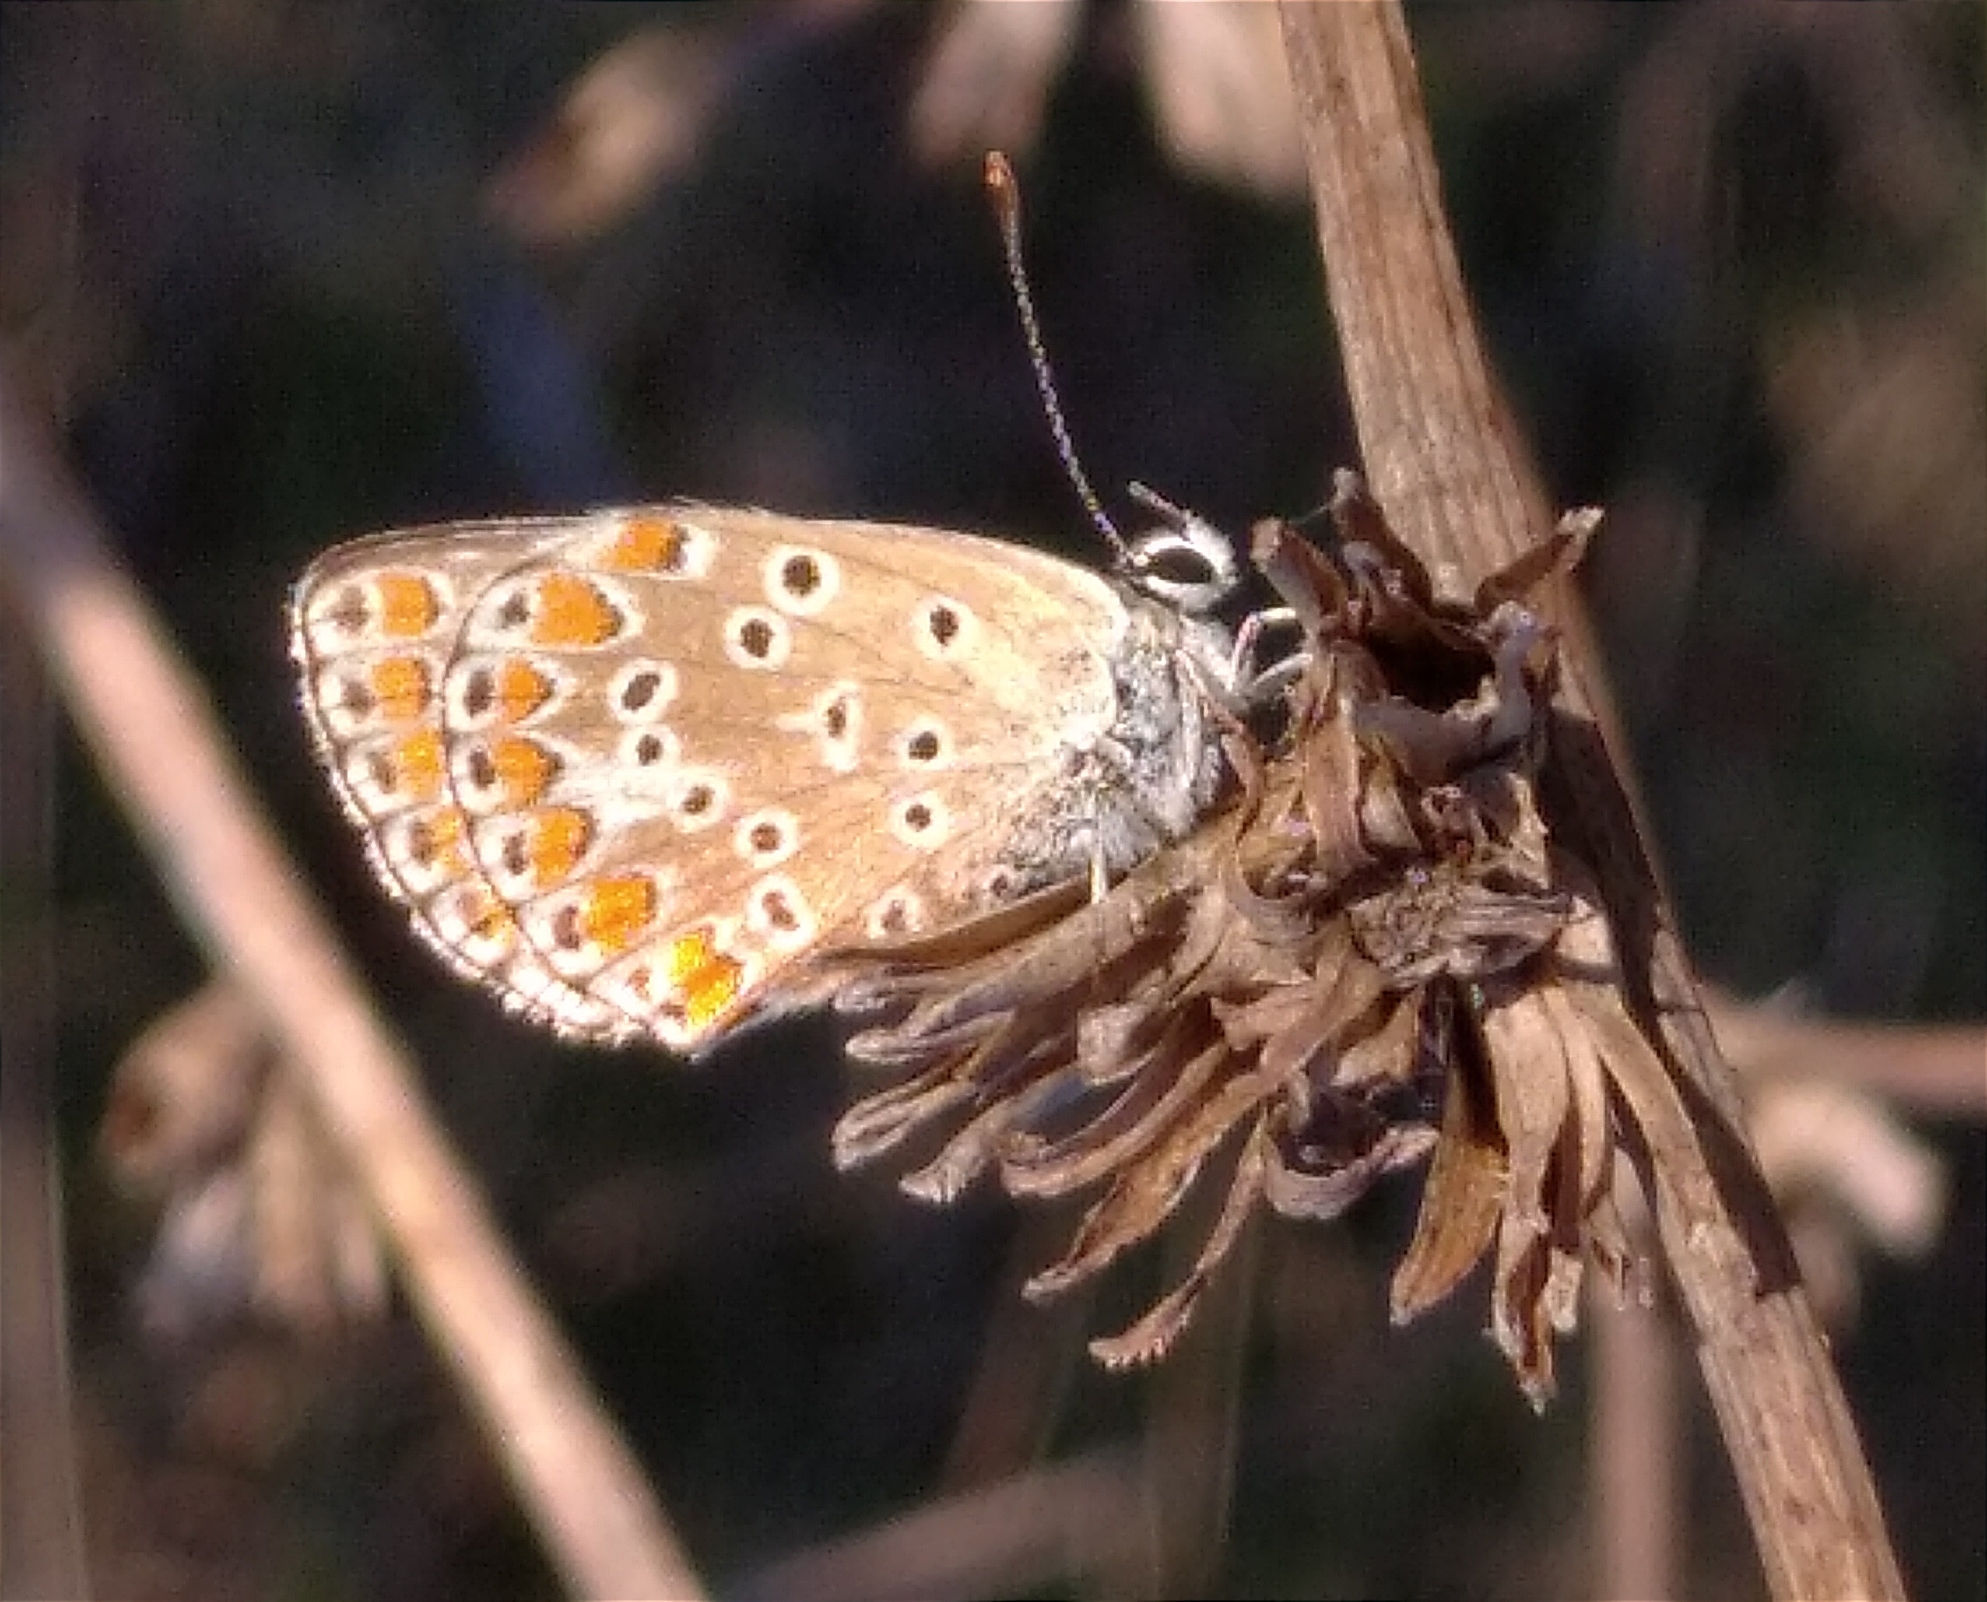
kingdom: Animalia
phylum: Arthropoda
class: Insecta
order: Lepidoptera
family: Lycaenidae
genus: Aricia
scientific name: Aricia
